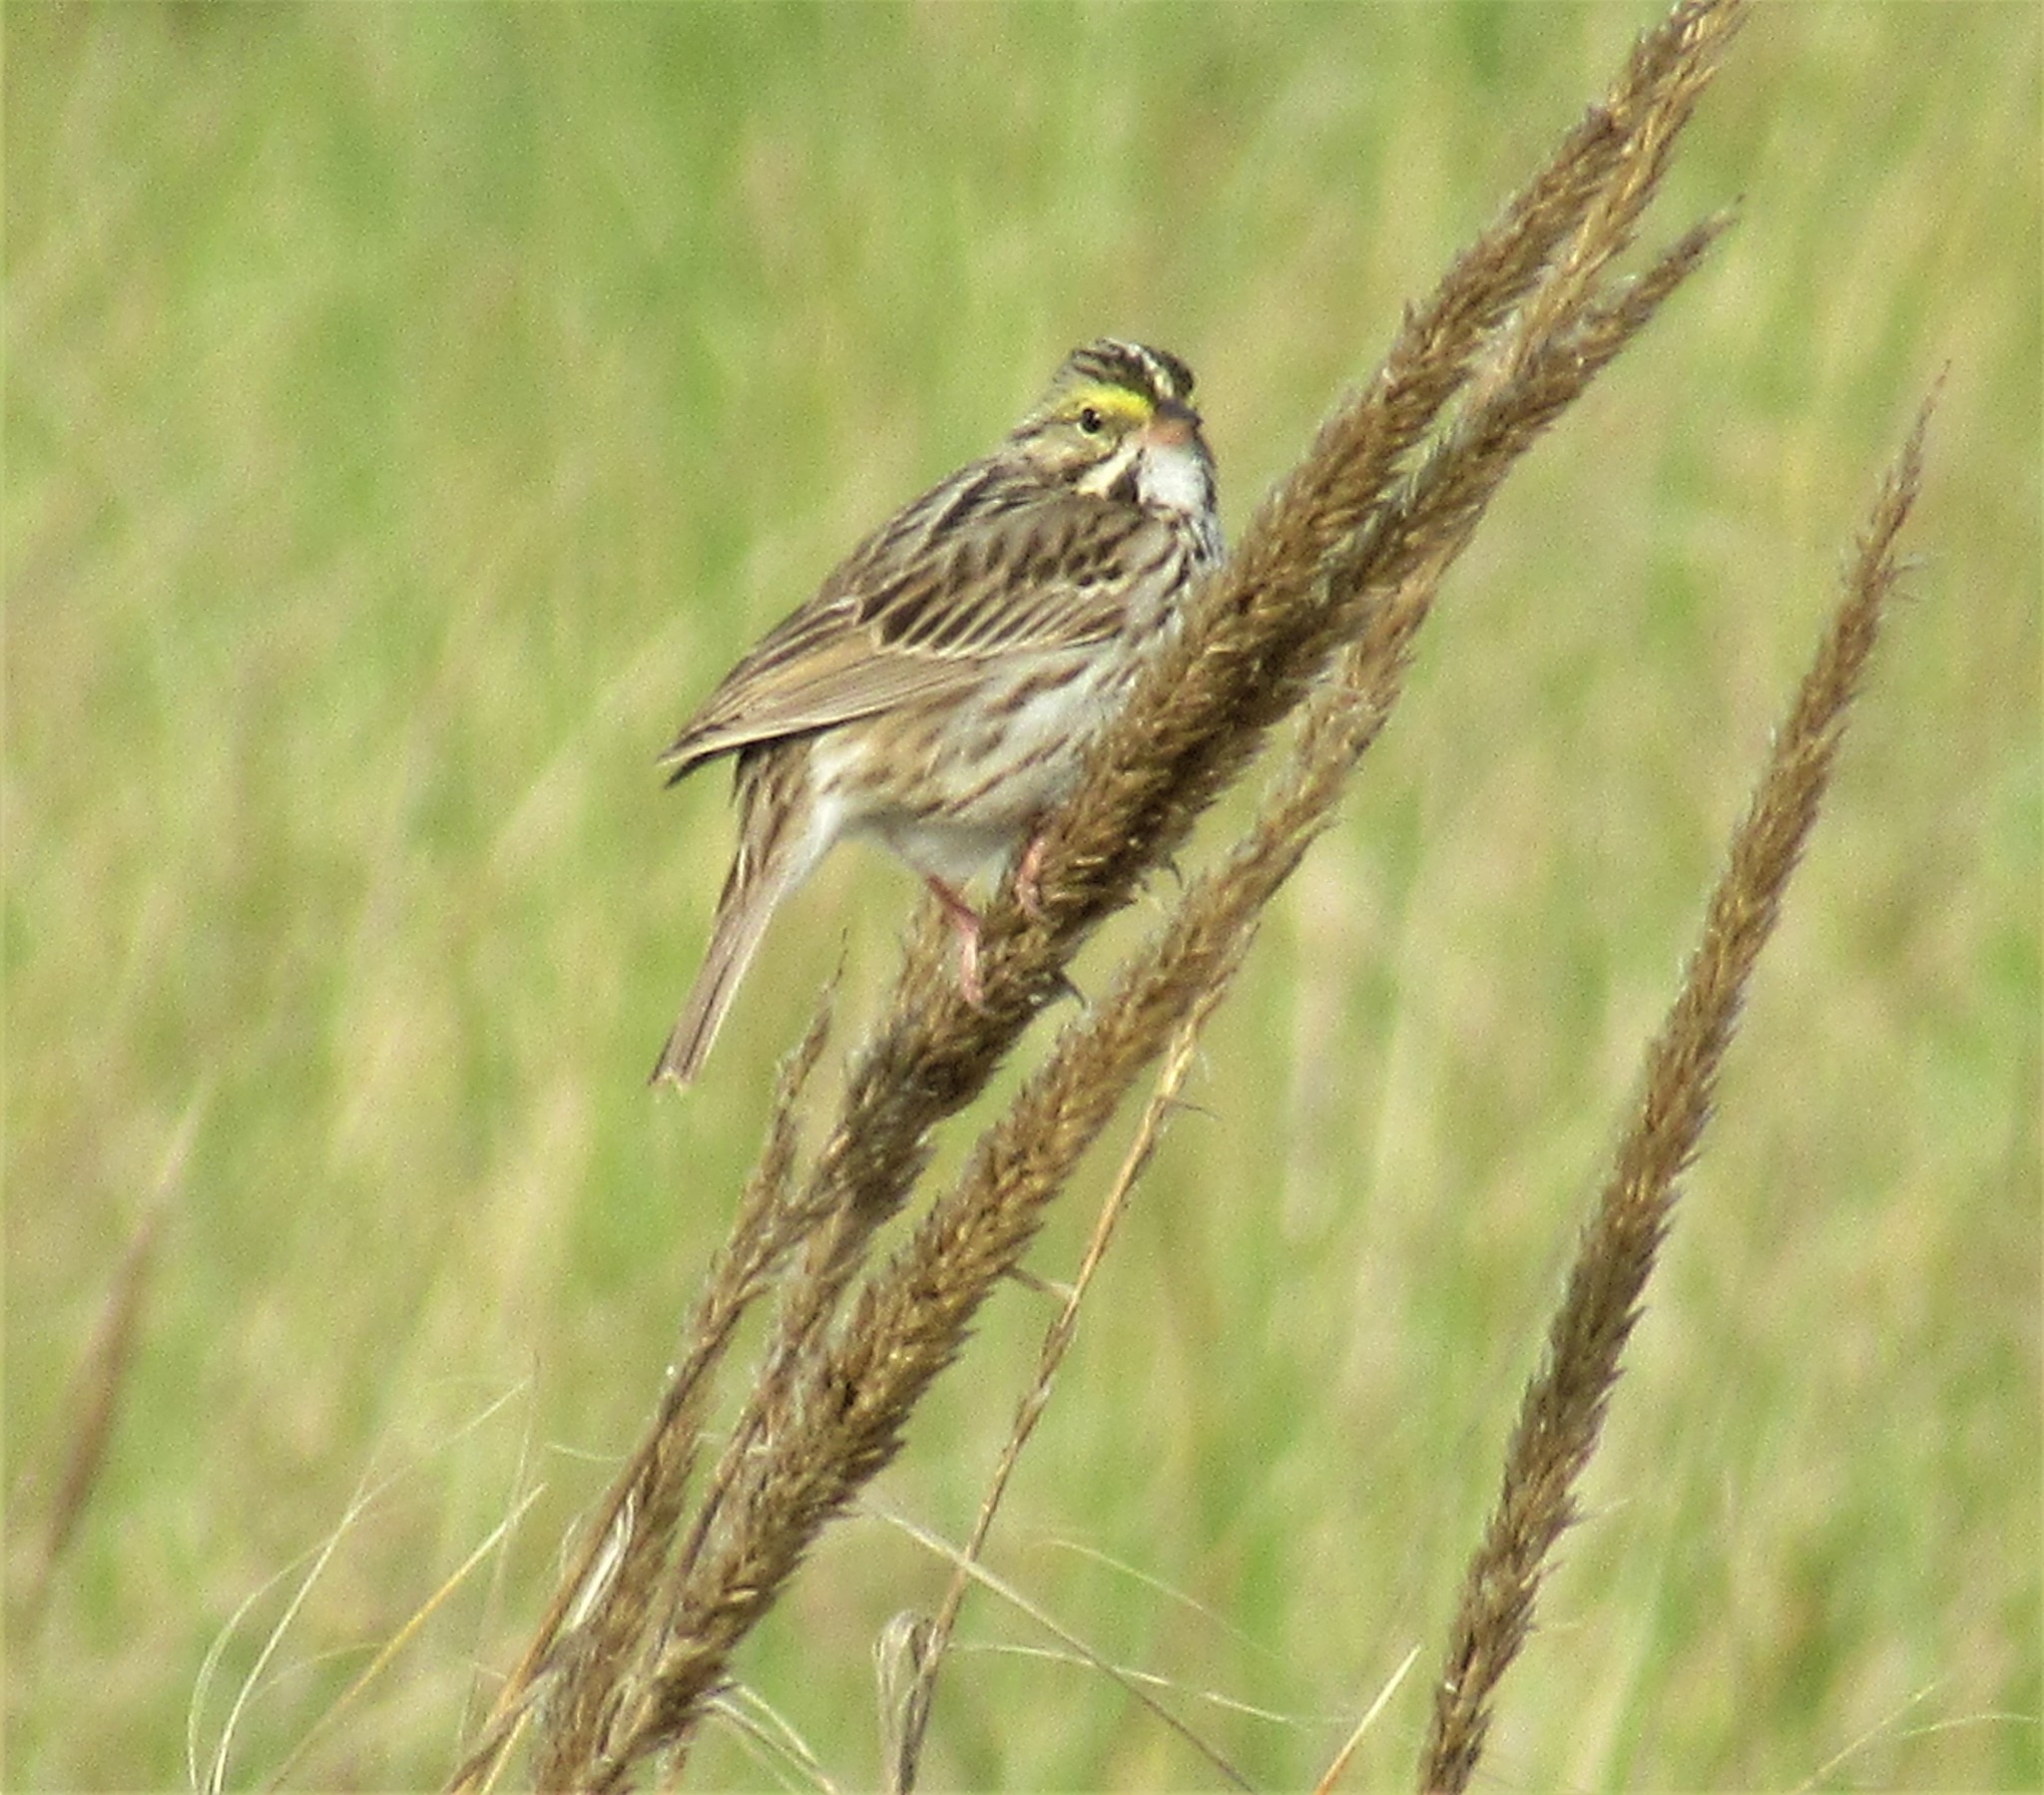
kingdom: Animalia
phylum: Chordata
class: Aves
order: Passeriformes
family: Passerellidae
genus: Passerculus
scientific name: Passerculus sandwichensis
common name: Savannah sparrow
